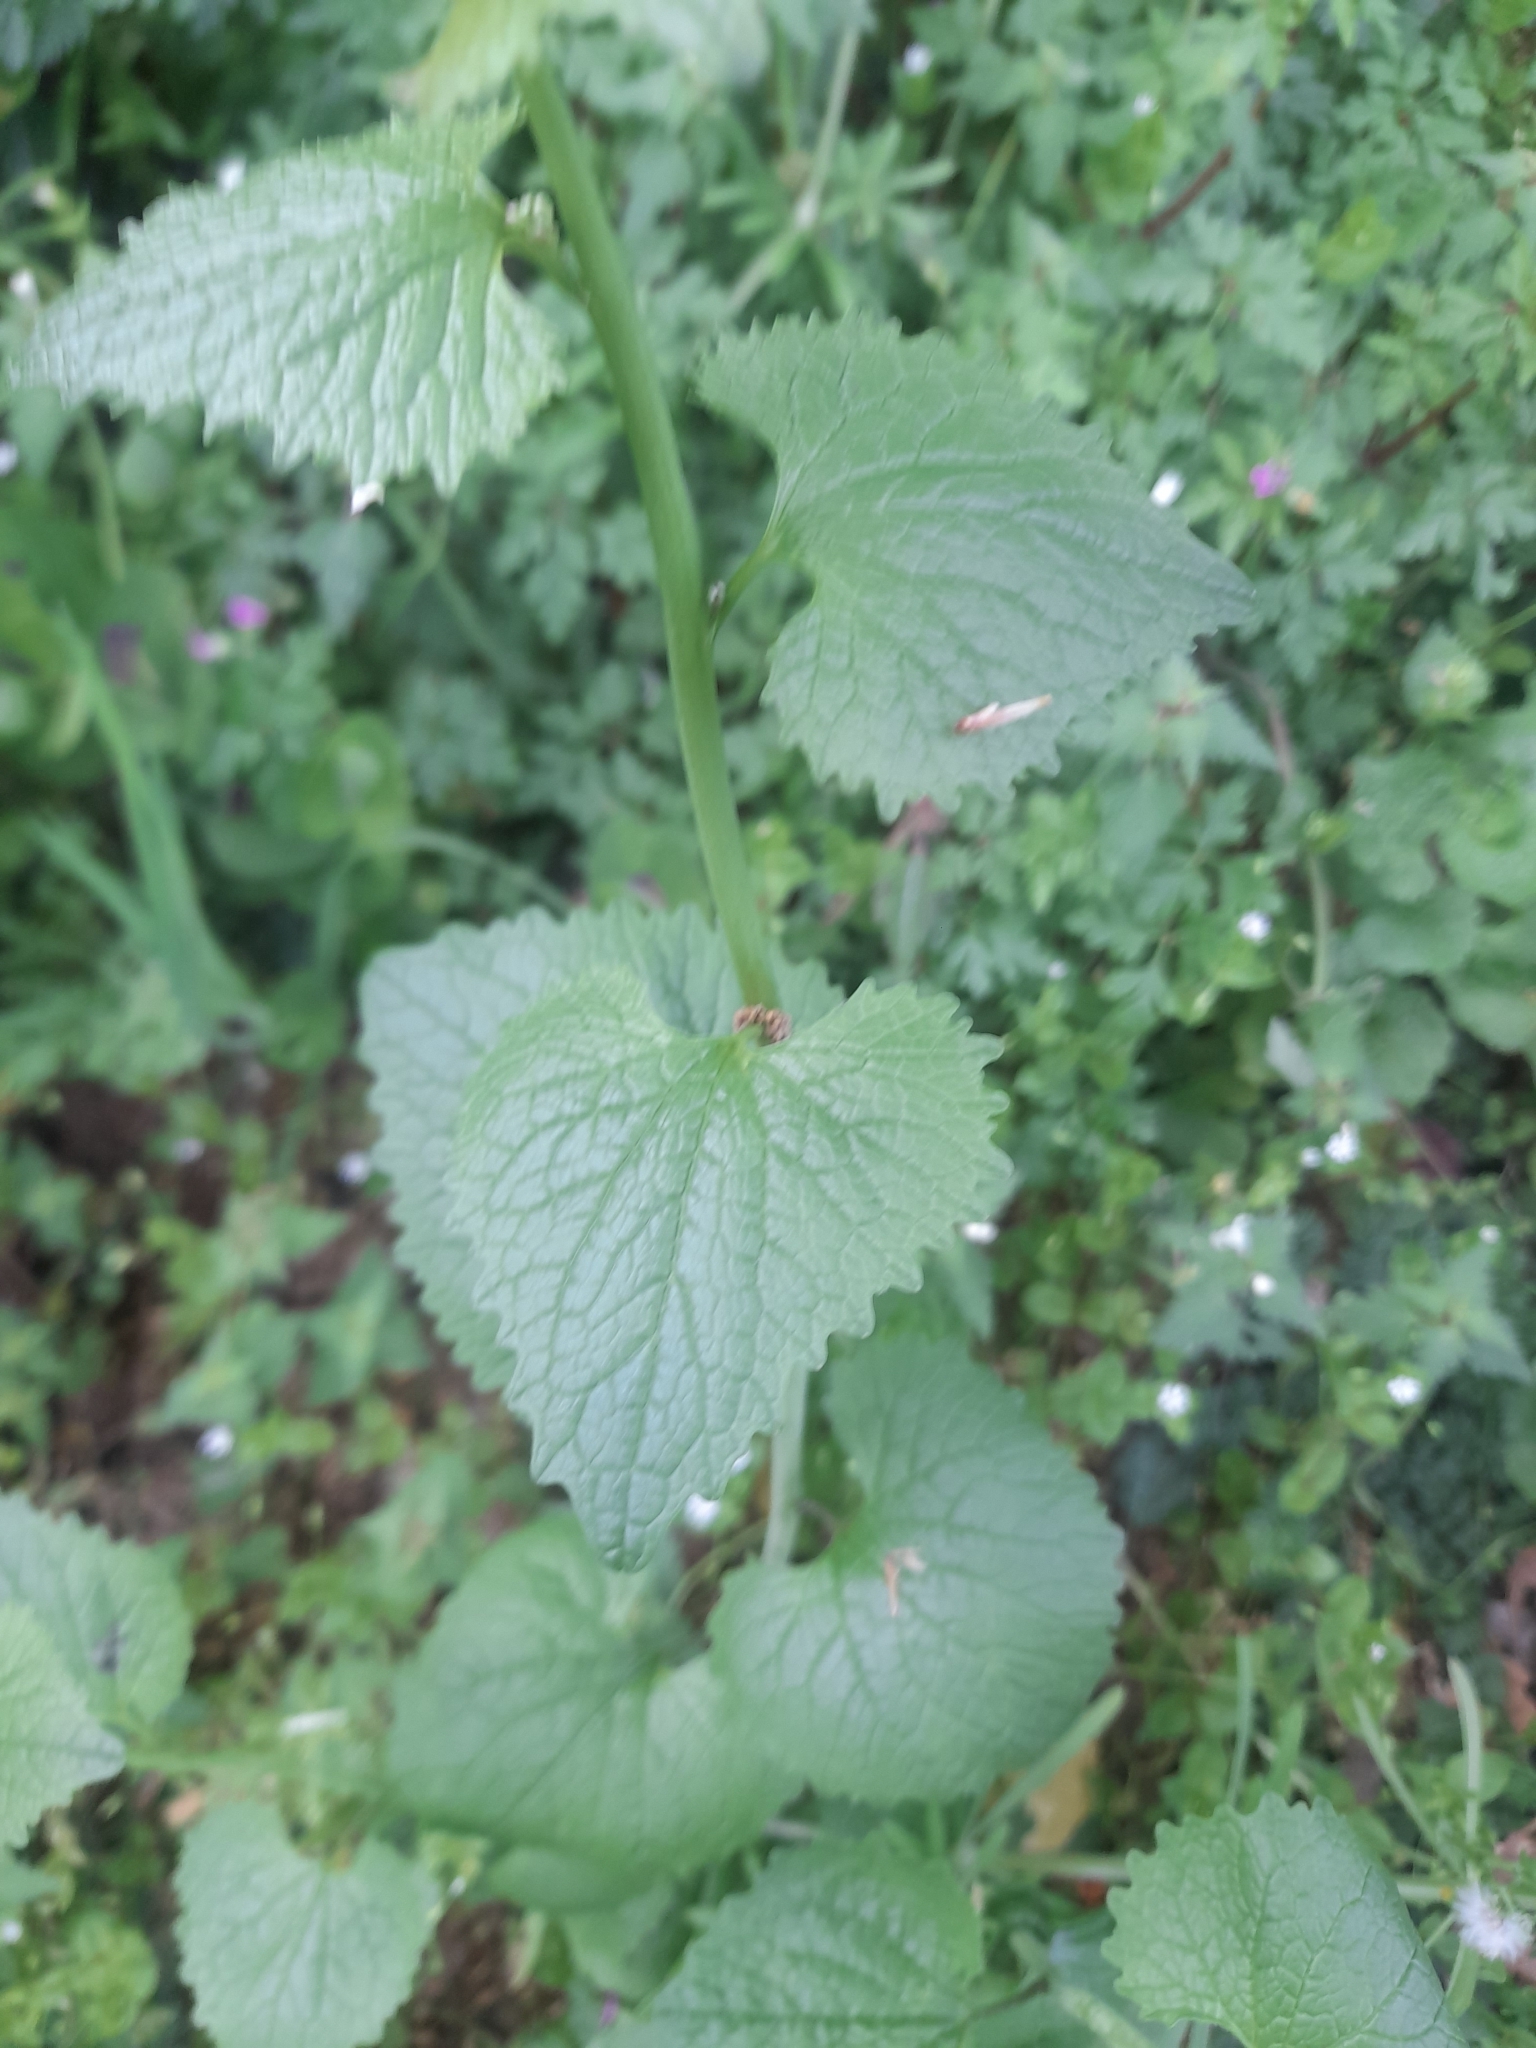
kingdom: Plantae
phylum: Tracheophyta
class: Magnoliopsida
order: Brassicales
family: Brassicaceae
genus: Alliaria
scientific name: Alliaria petiolata
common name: Garlic mustard
